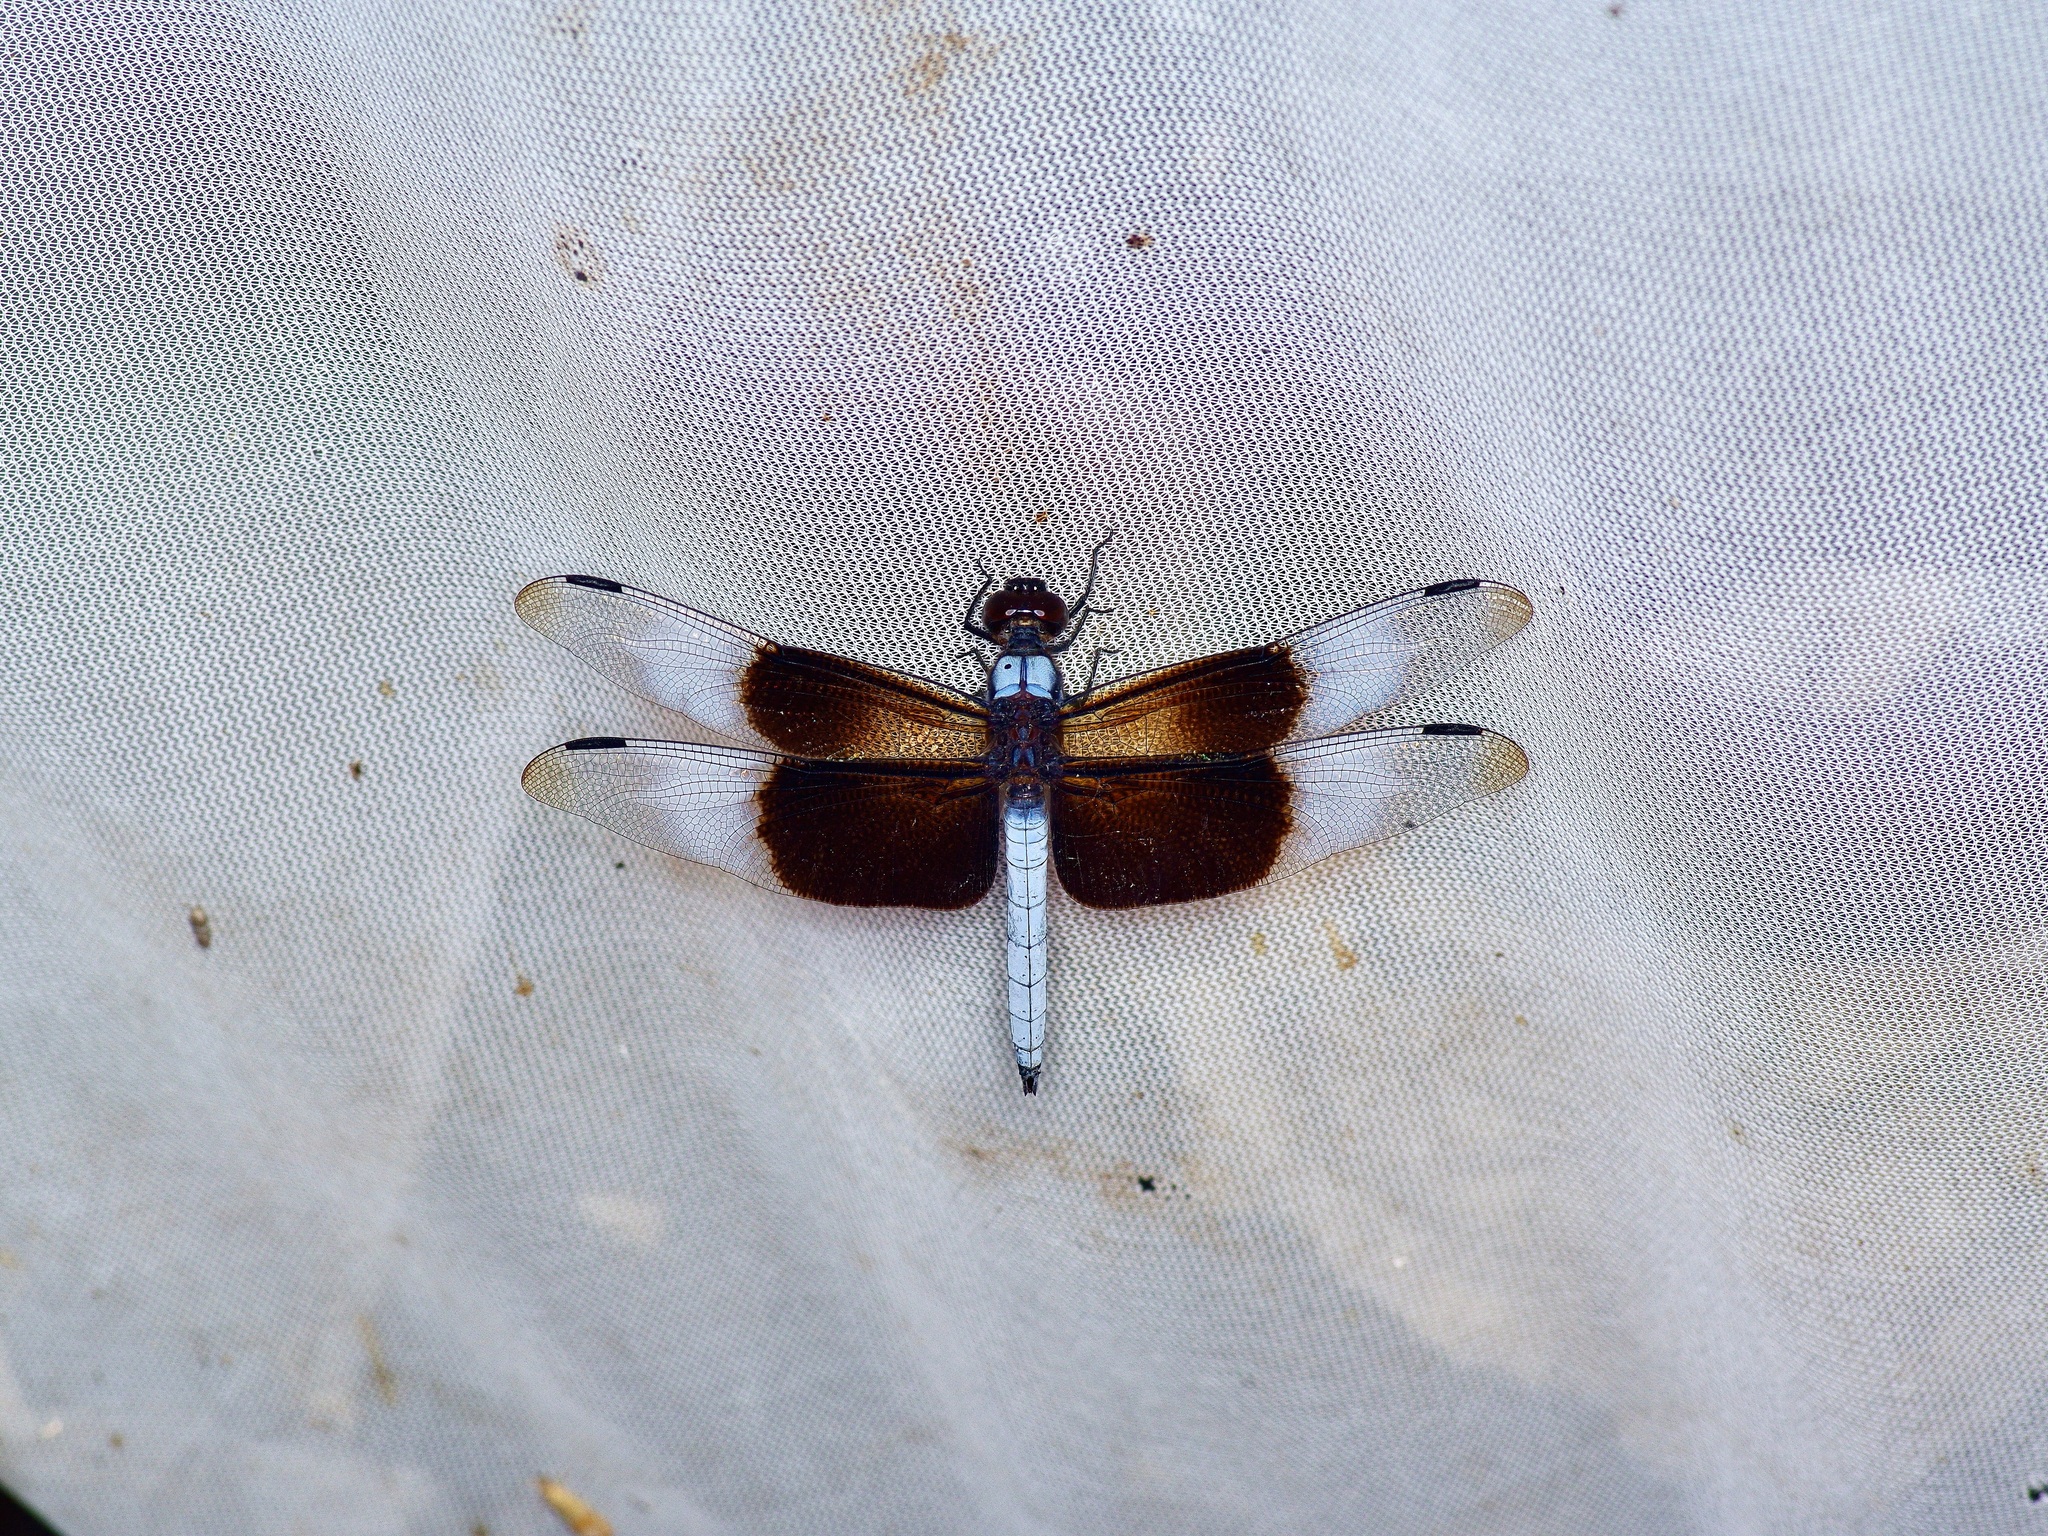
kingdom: Animalia
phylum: Arthropoda
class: Insecta
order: Odonata
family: Libellulidae
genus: Libellula
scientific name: Libellula luctuosa
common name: Widow skimmer
